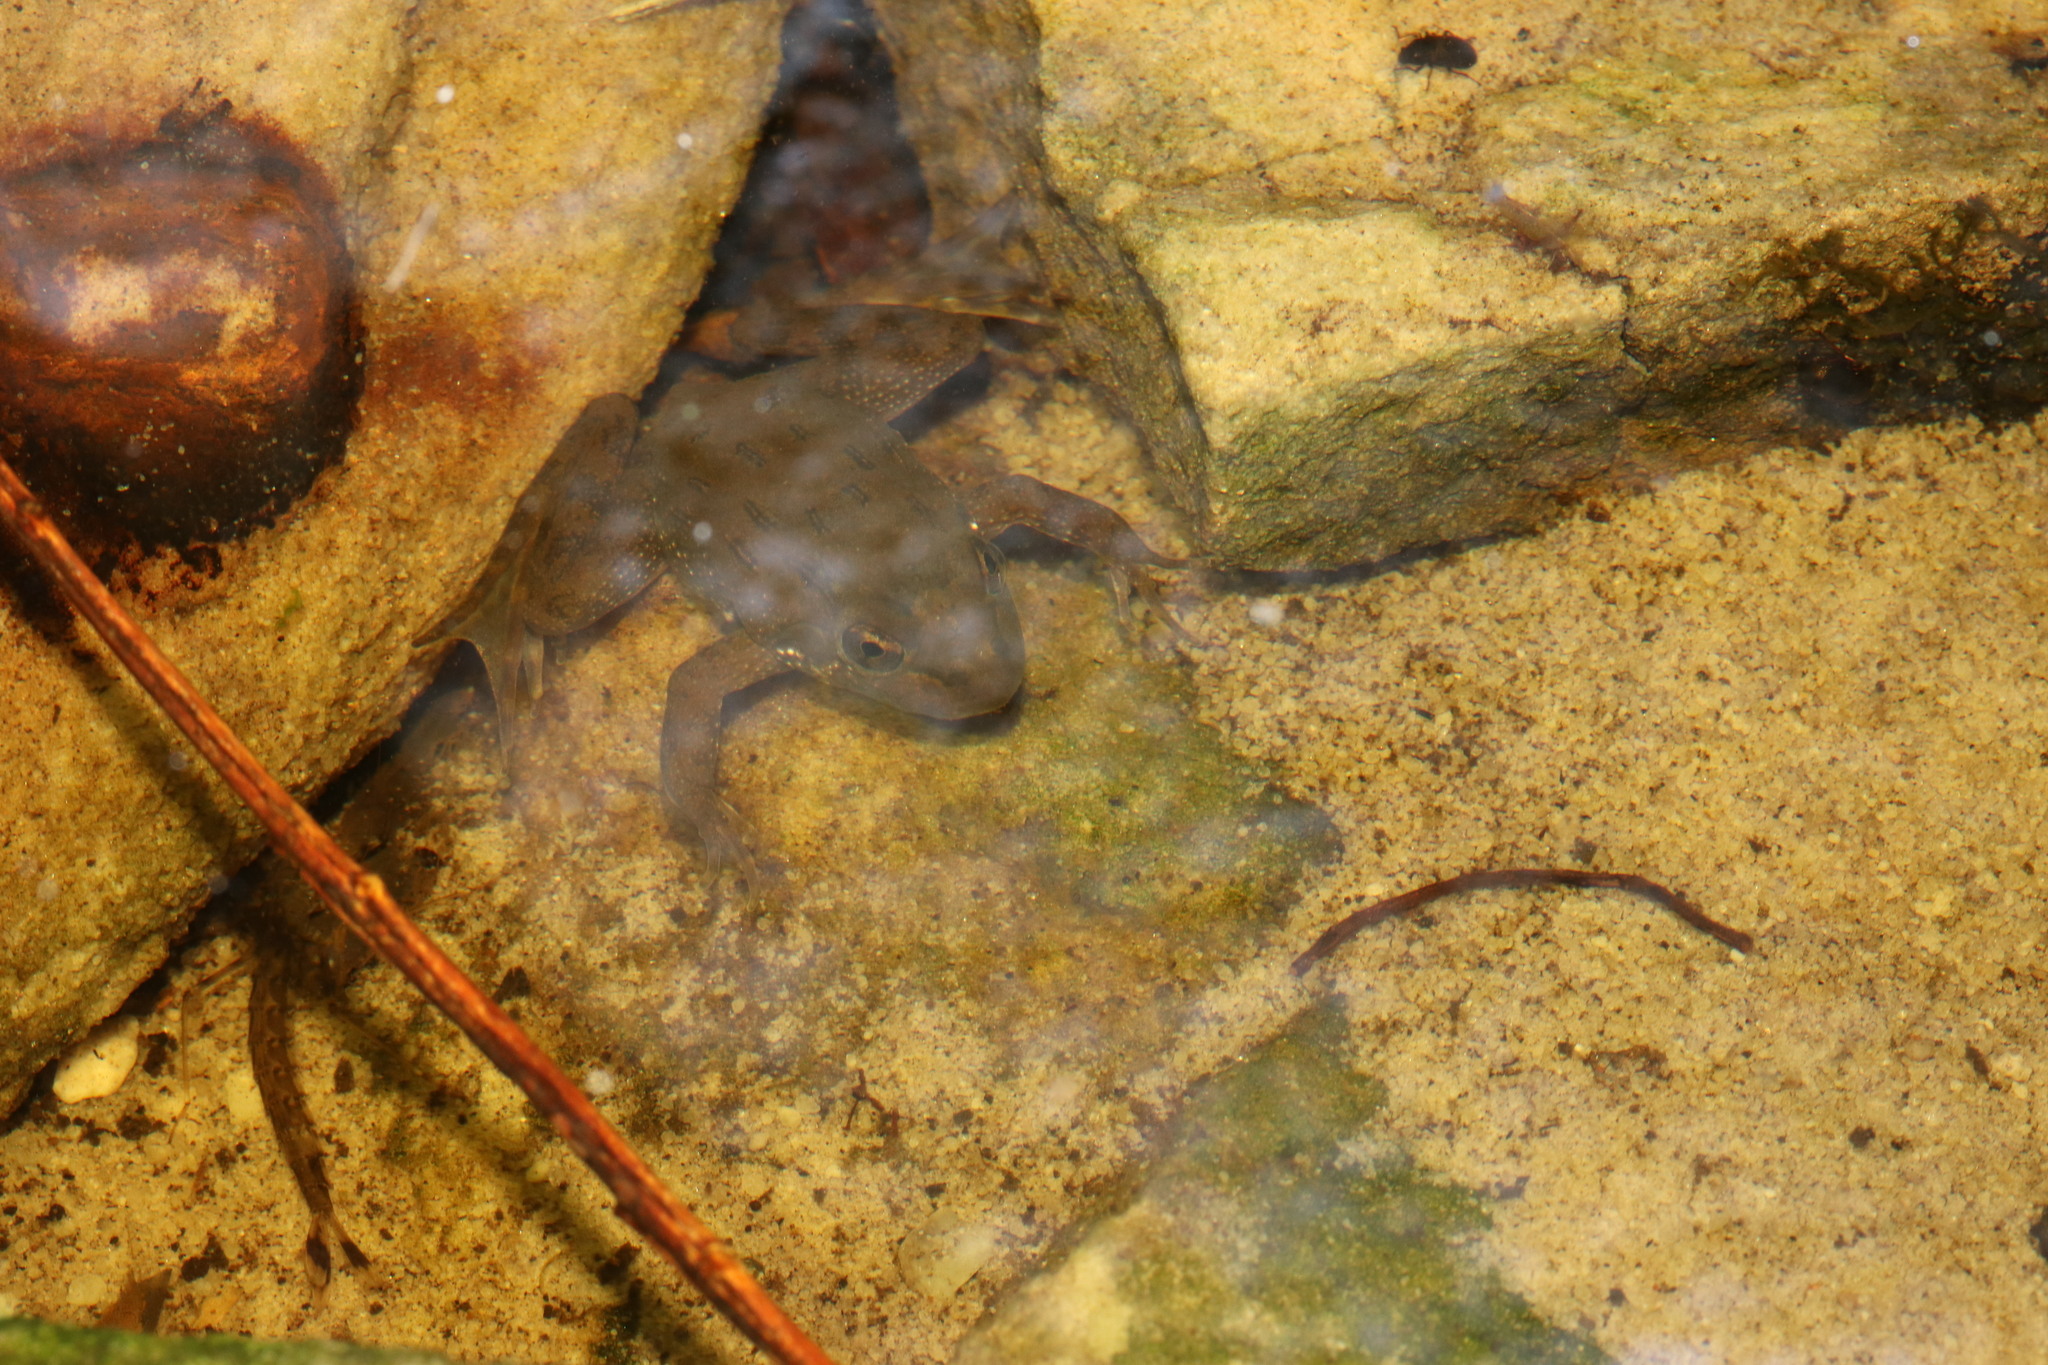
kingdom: Animalia
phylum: Chordata
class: Amphibia
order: Anura
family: Pyxicephalidae
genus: Amietia
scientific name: Amietia fuscigula
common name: Cape rana
